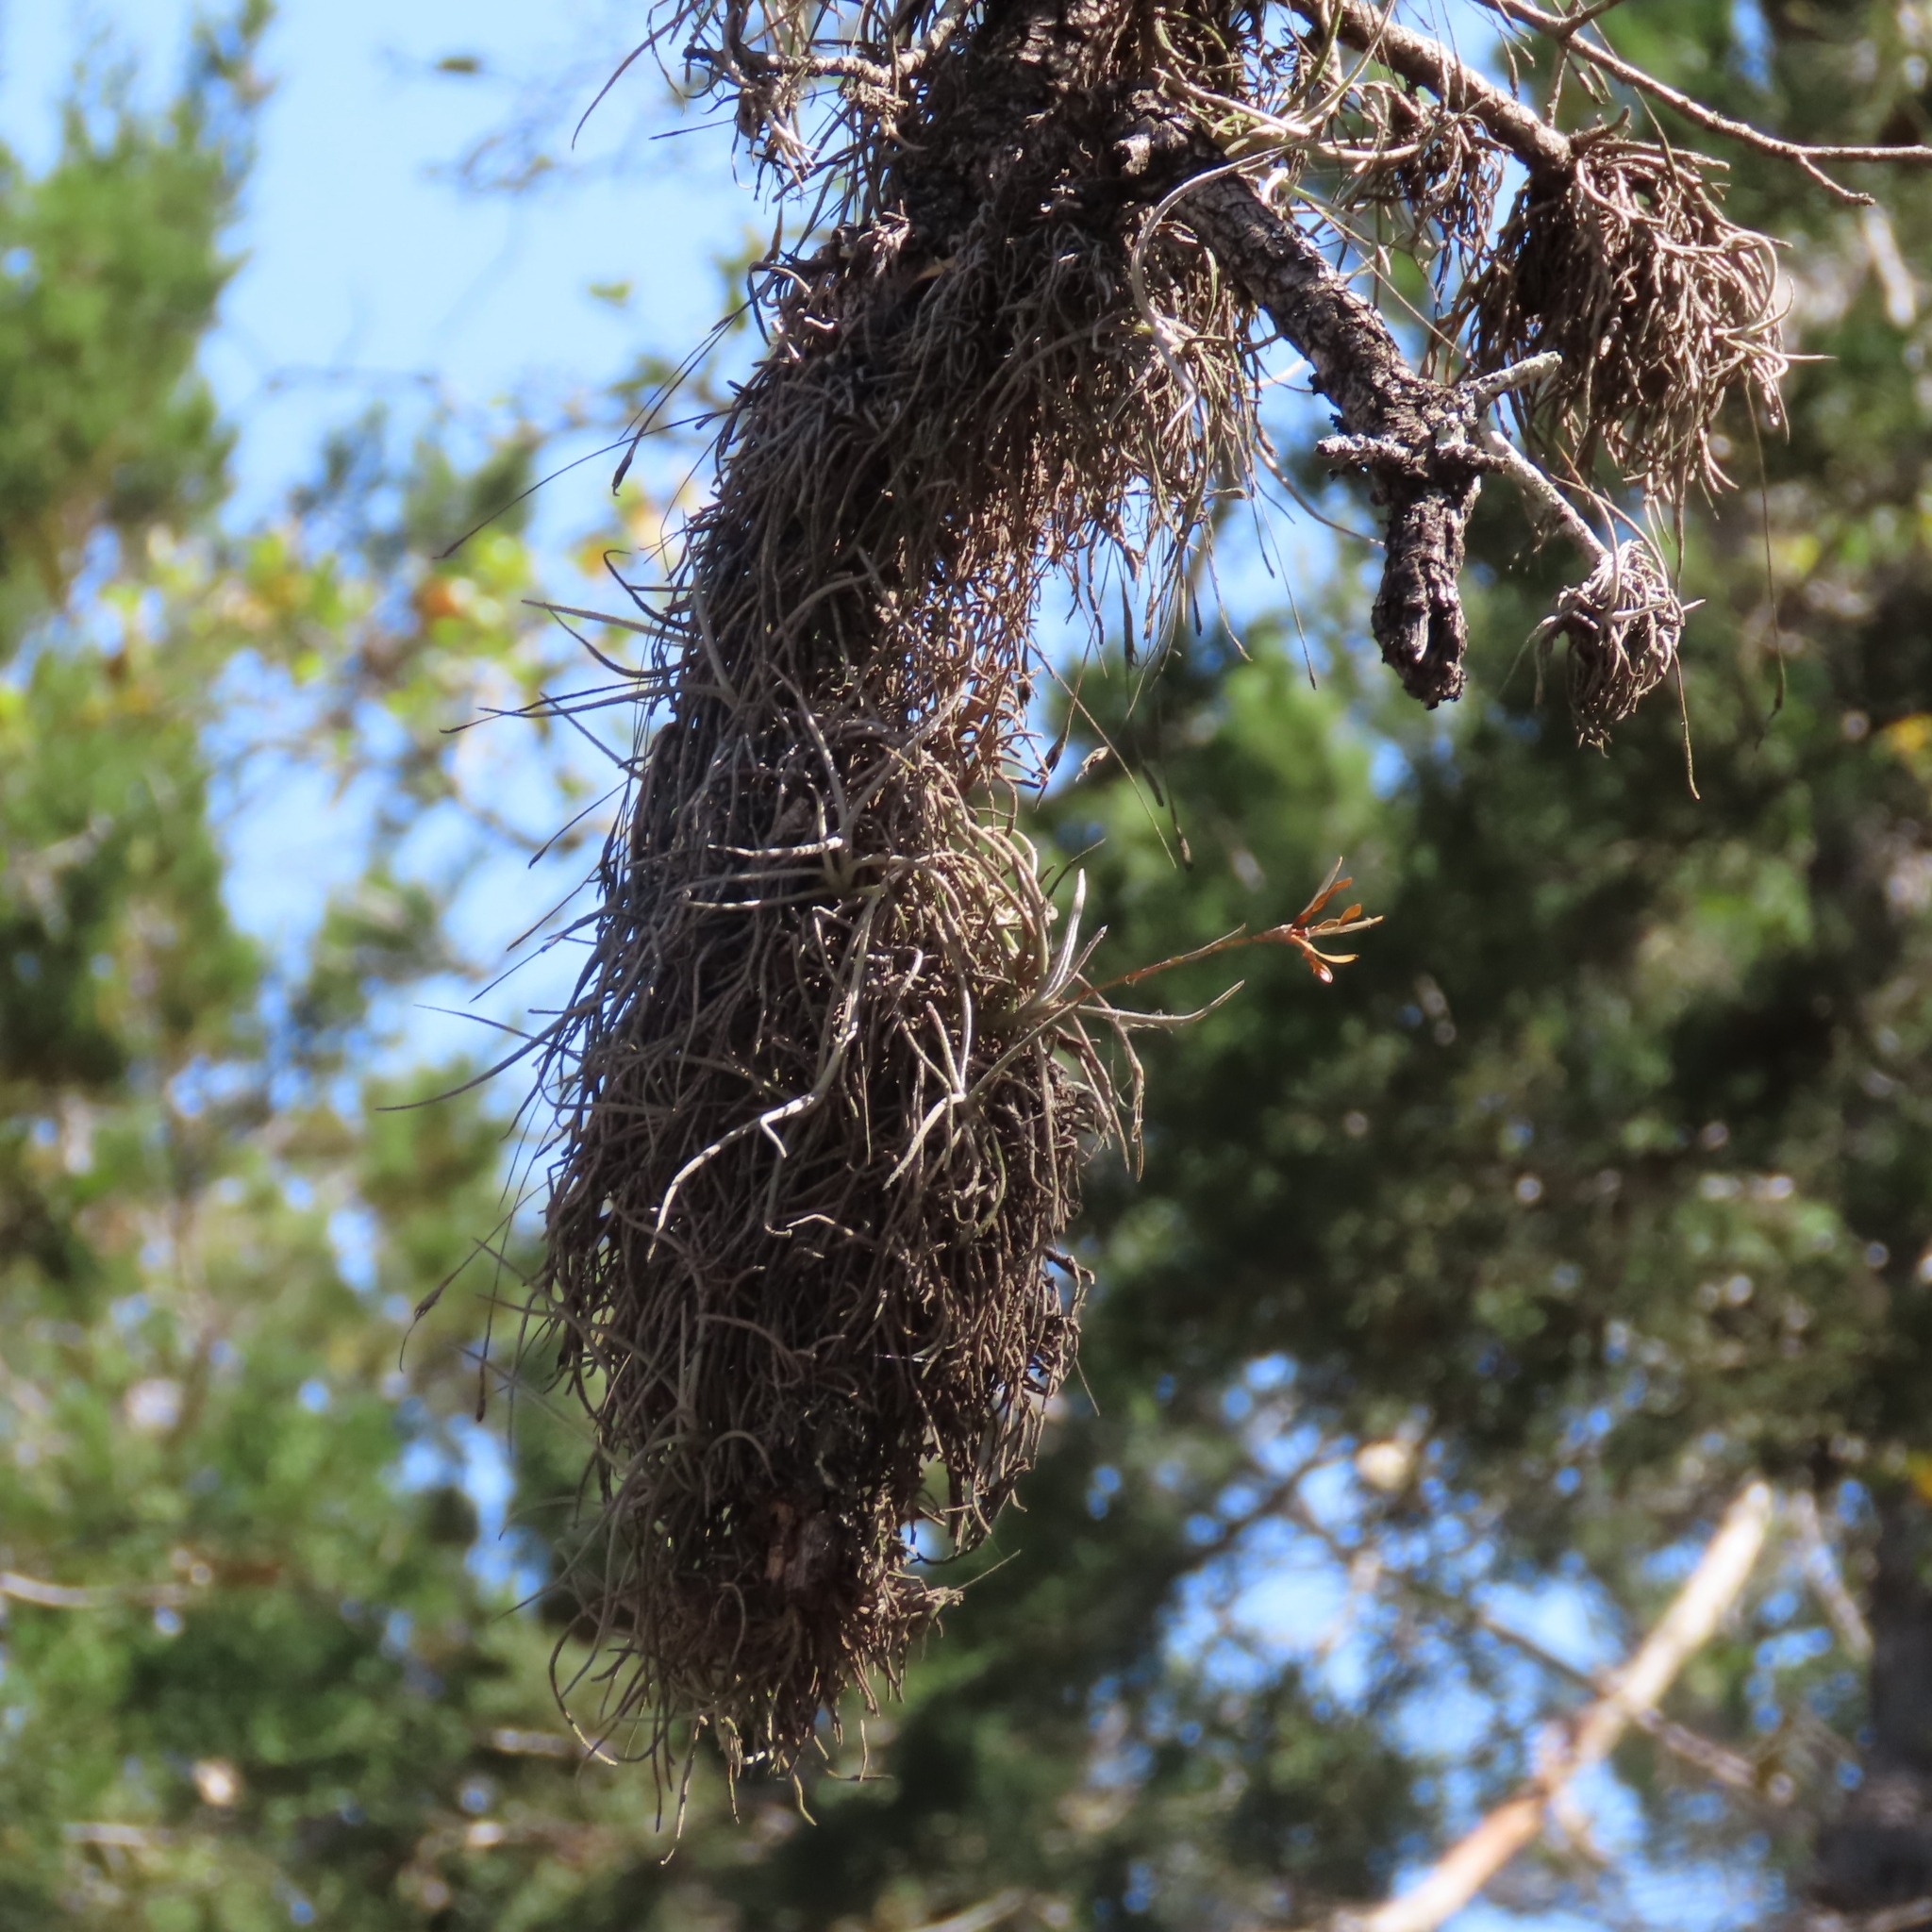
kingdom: Plantae
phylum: Tracheophyta
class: Liliopsida
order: Poales
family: Bromeliaceae
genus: Tillandsia
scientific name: Tillandsia recurvata
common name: Small ballmoss
